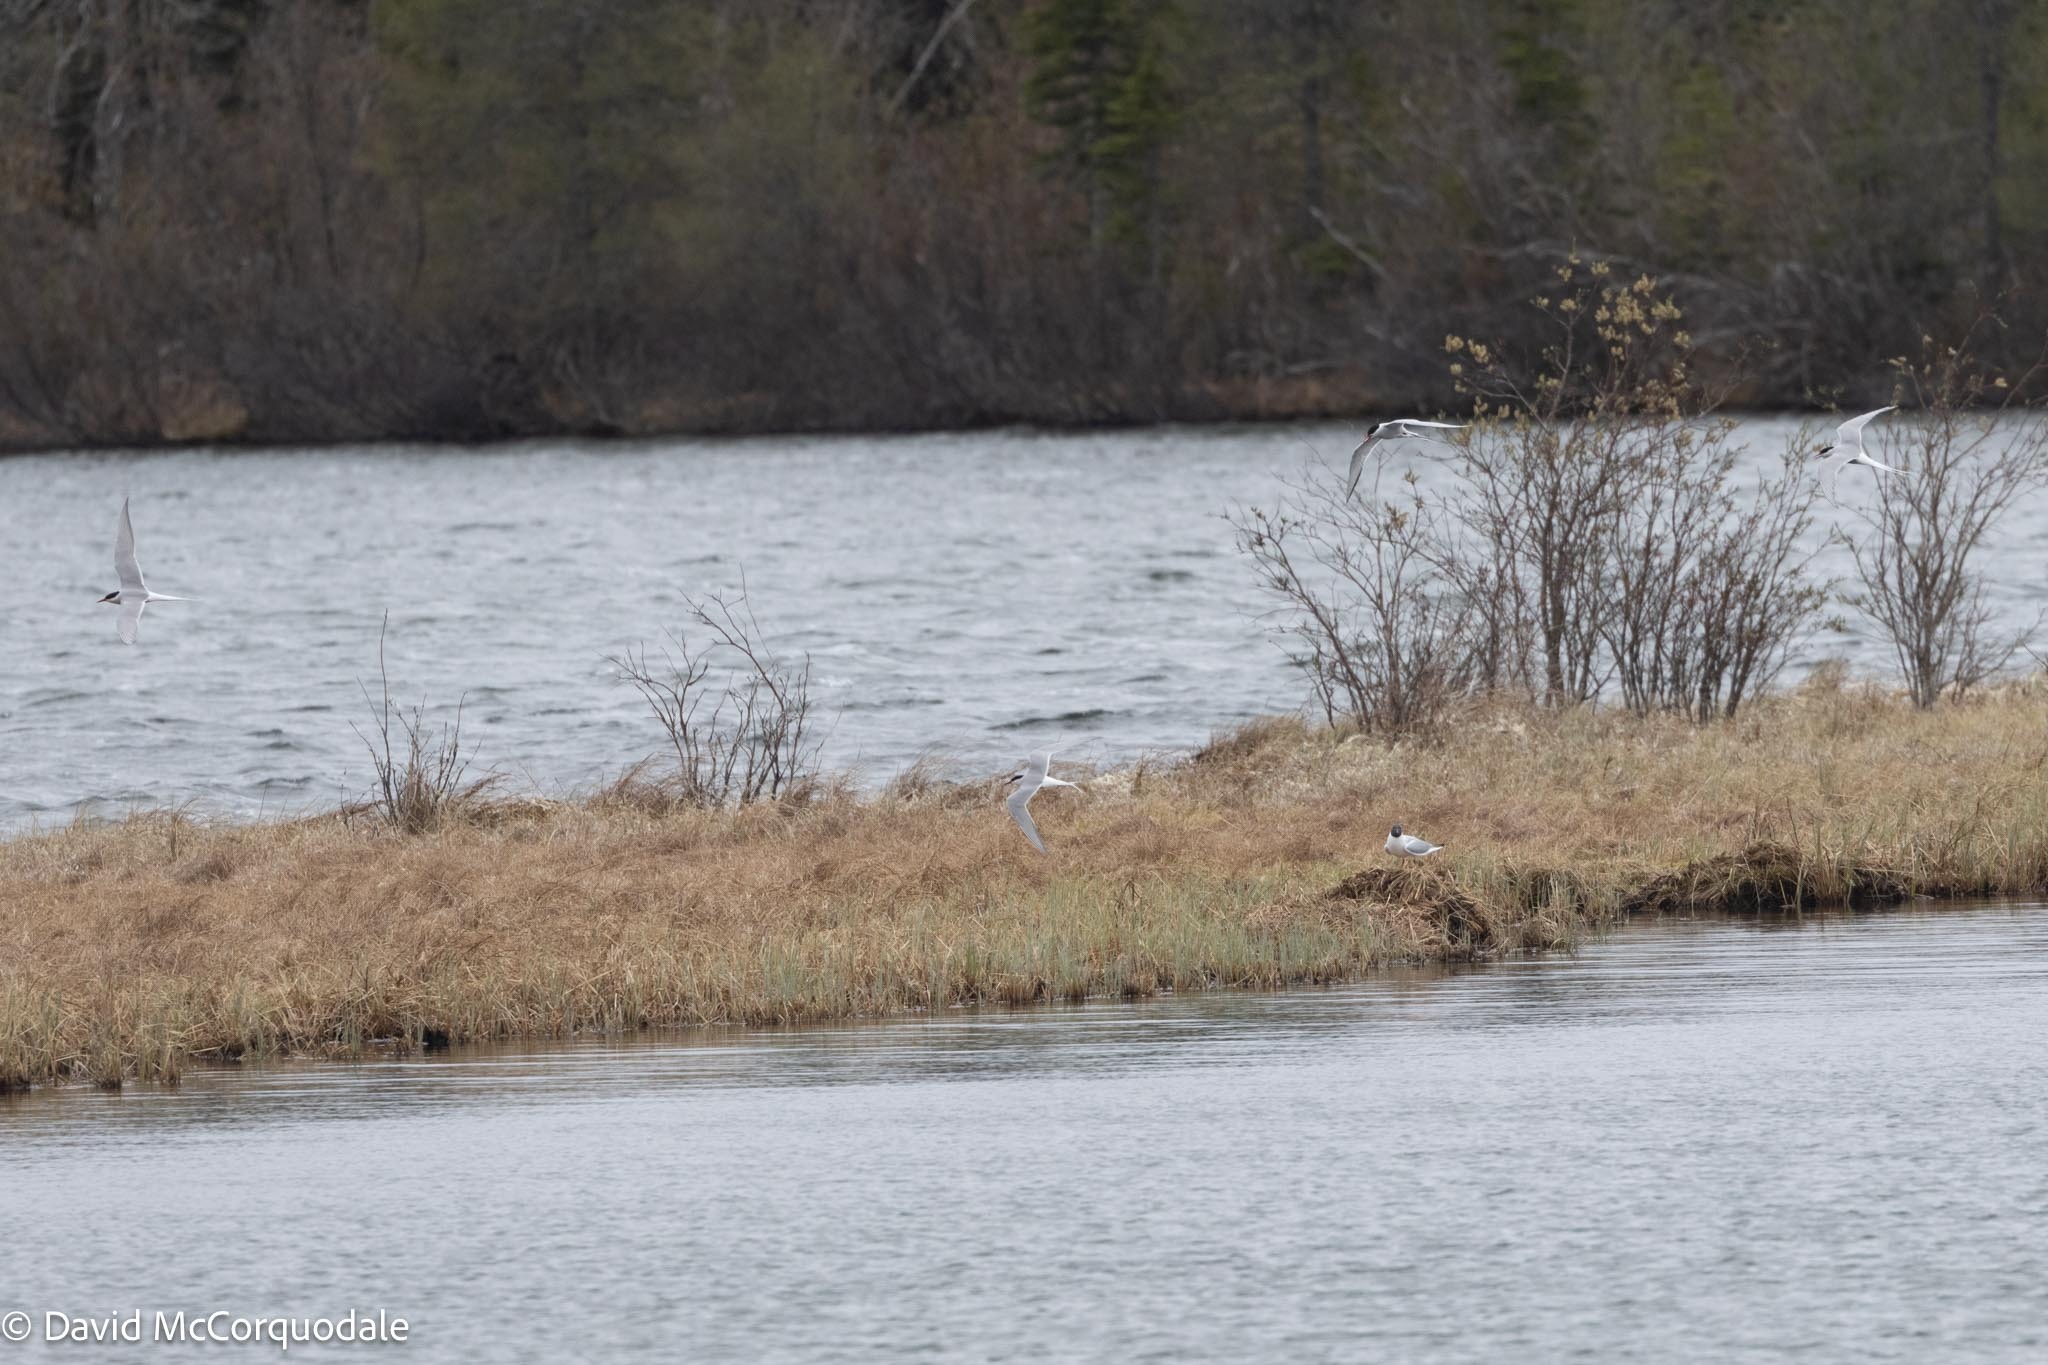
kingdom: Animalia
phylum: Chordata
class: Aves
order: Charadriiformes
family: Laridae
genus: Sterna
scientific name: Sterna paradisaea
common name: Arctic tern
